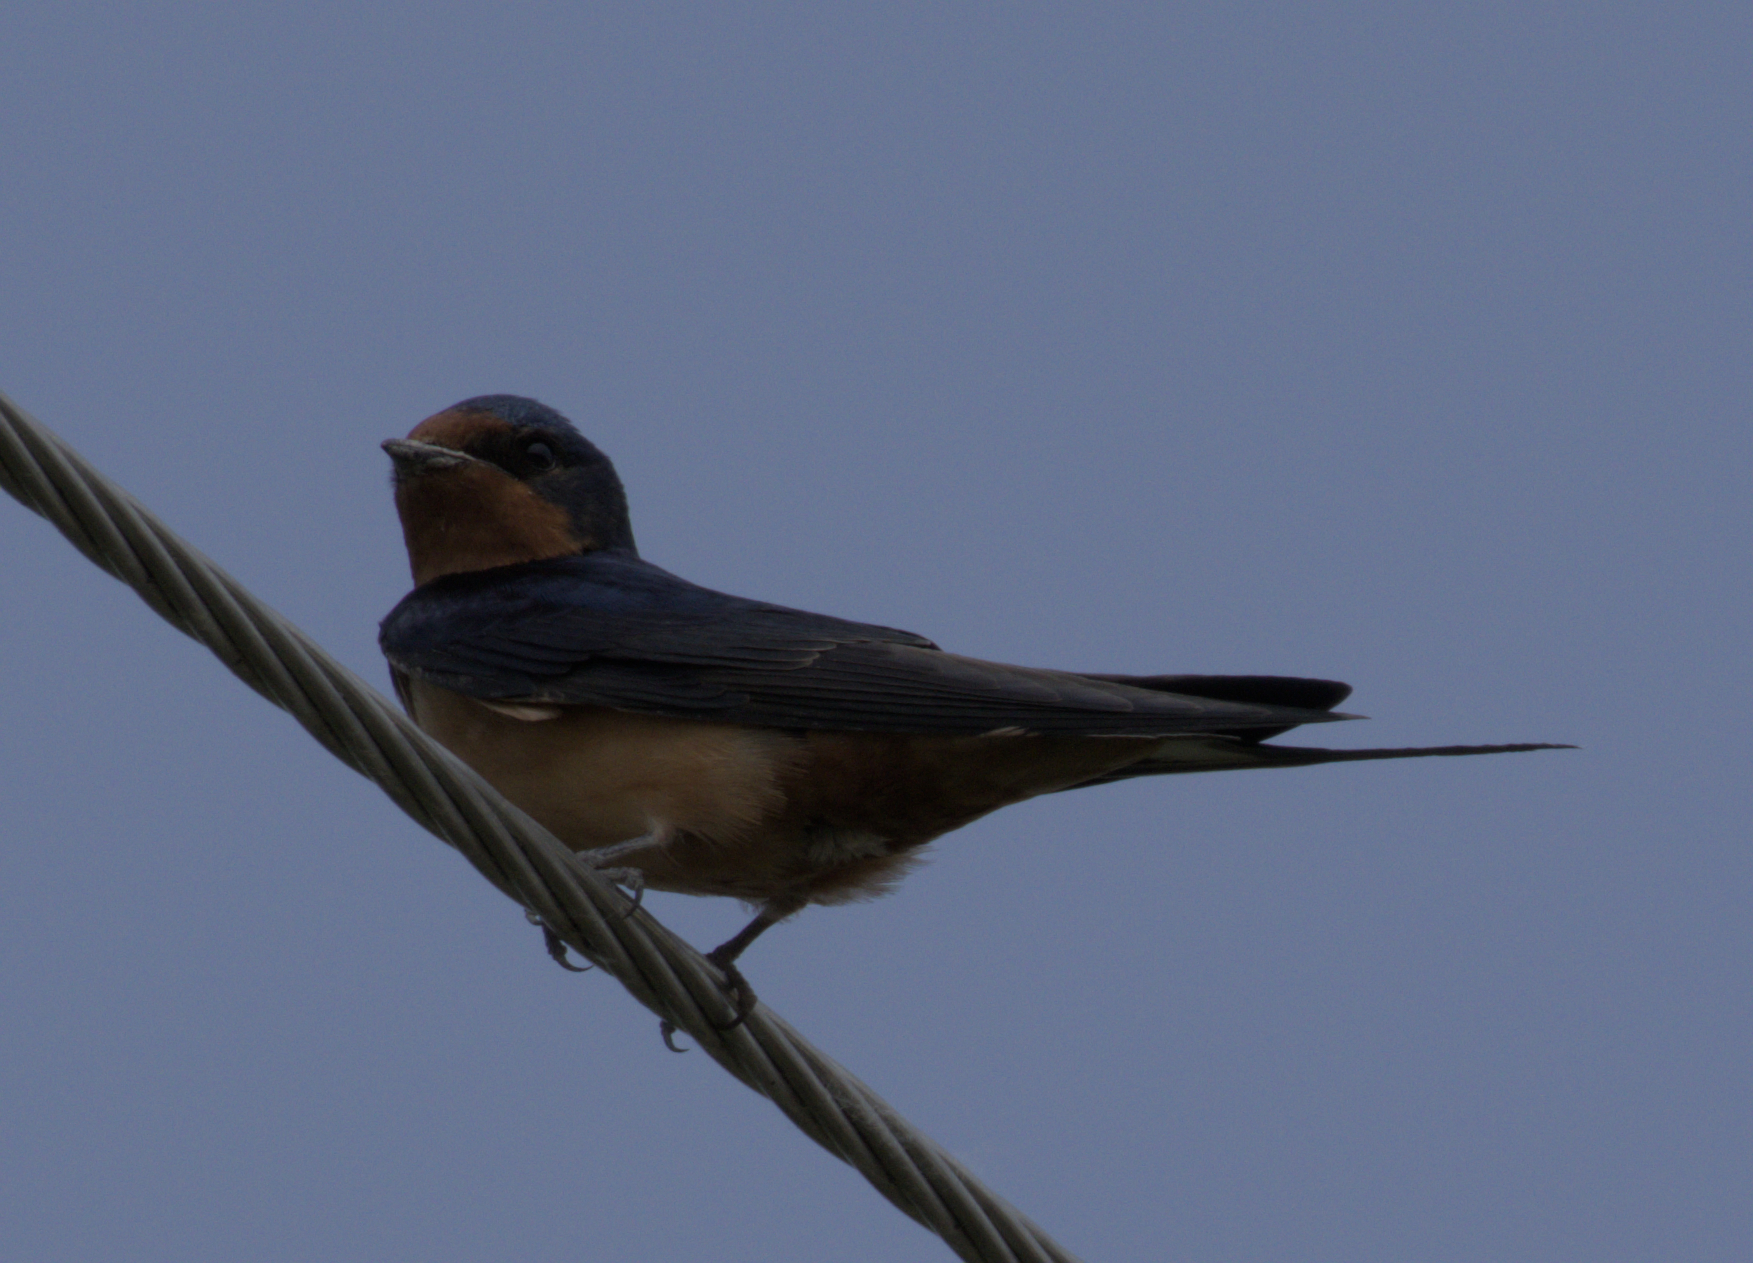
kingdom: Animalia
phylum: Chordata
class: Aves
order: Passeriformes
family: Hirundinidae
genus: Hirundo
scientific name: Hirundo rustica
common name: Barn swallow
